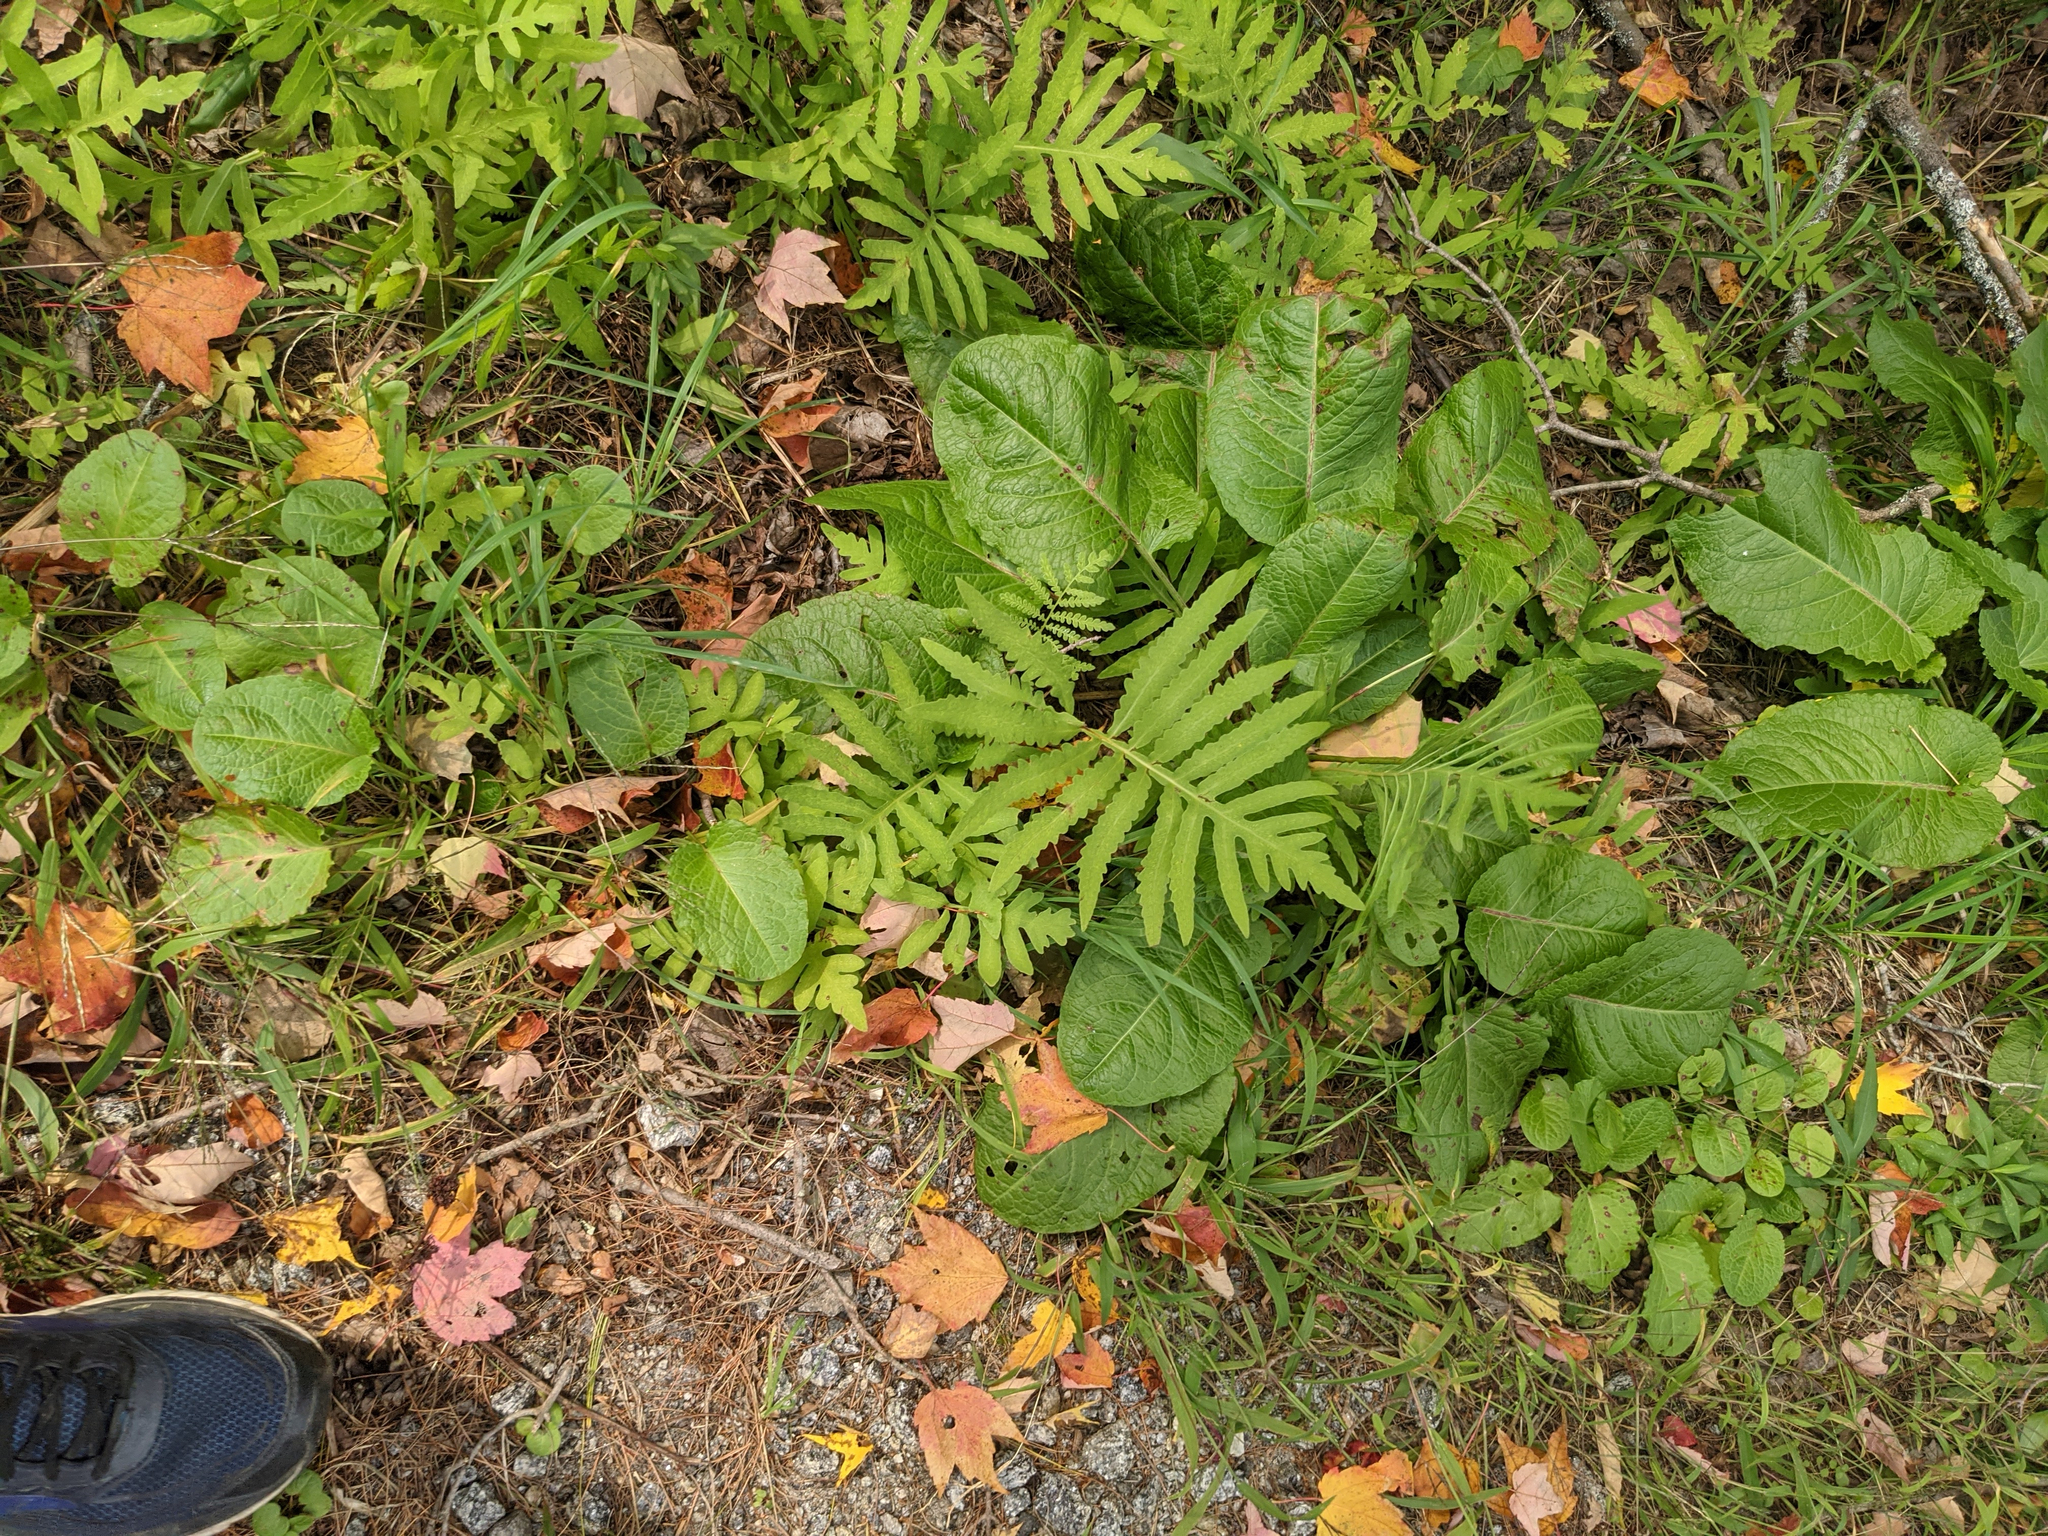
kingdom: Plantae
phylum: Tracheophyta
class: Polypodiopsida
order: Polypodiales
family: Onocleaceae
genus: Onoclea
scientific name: Onoclea sensibilis
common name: Sensitive fern
